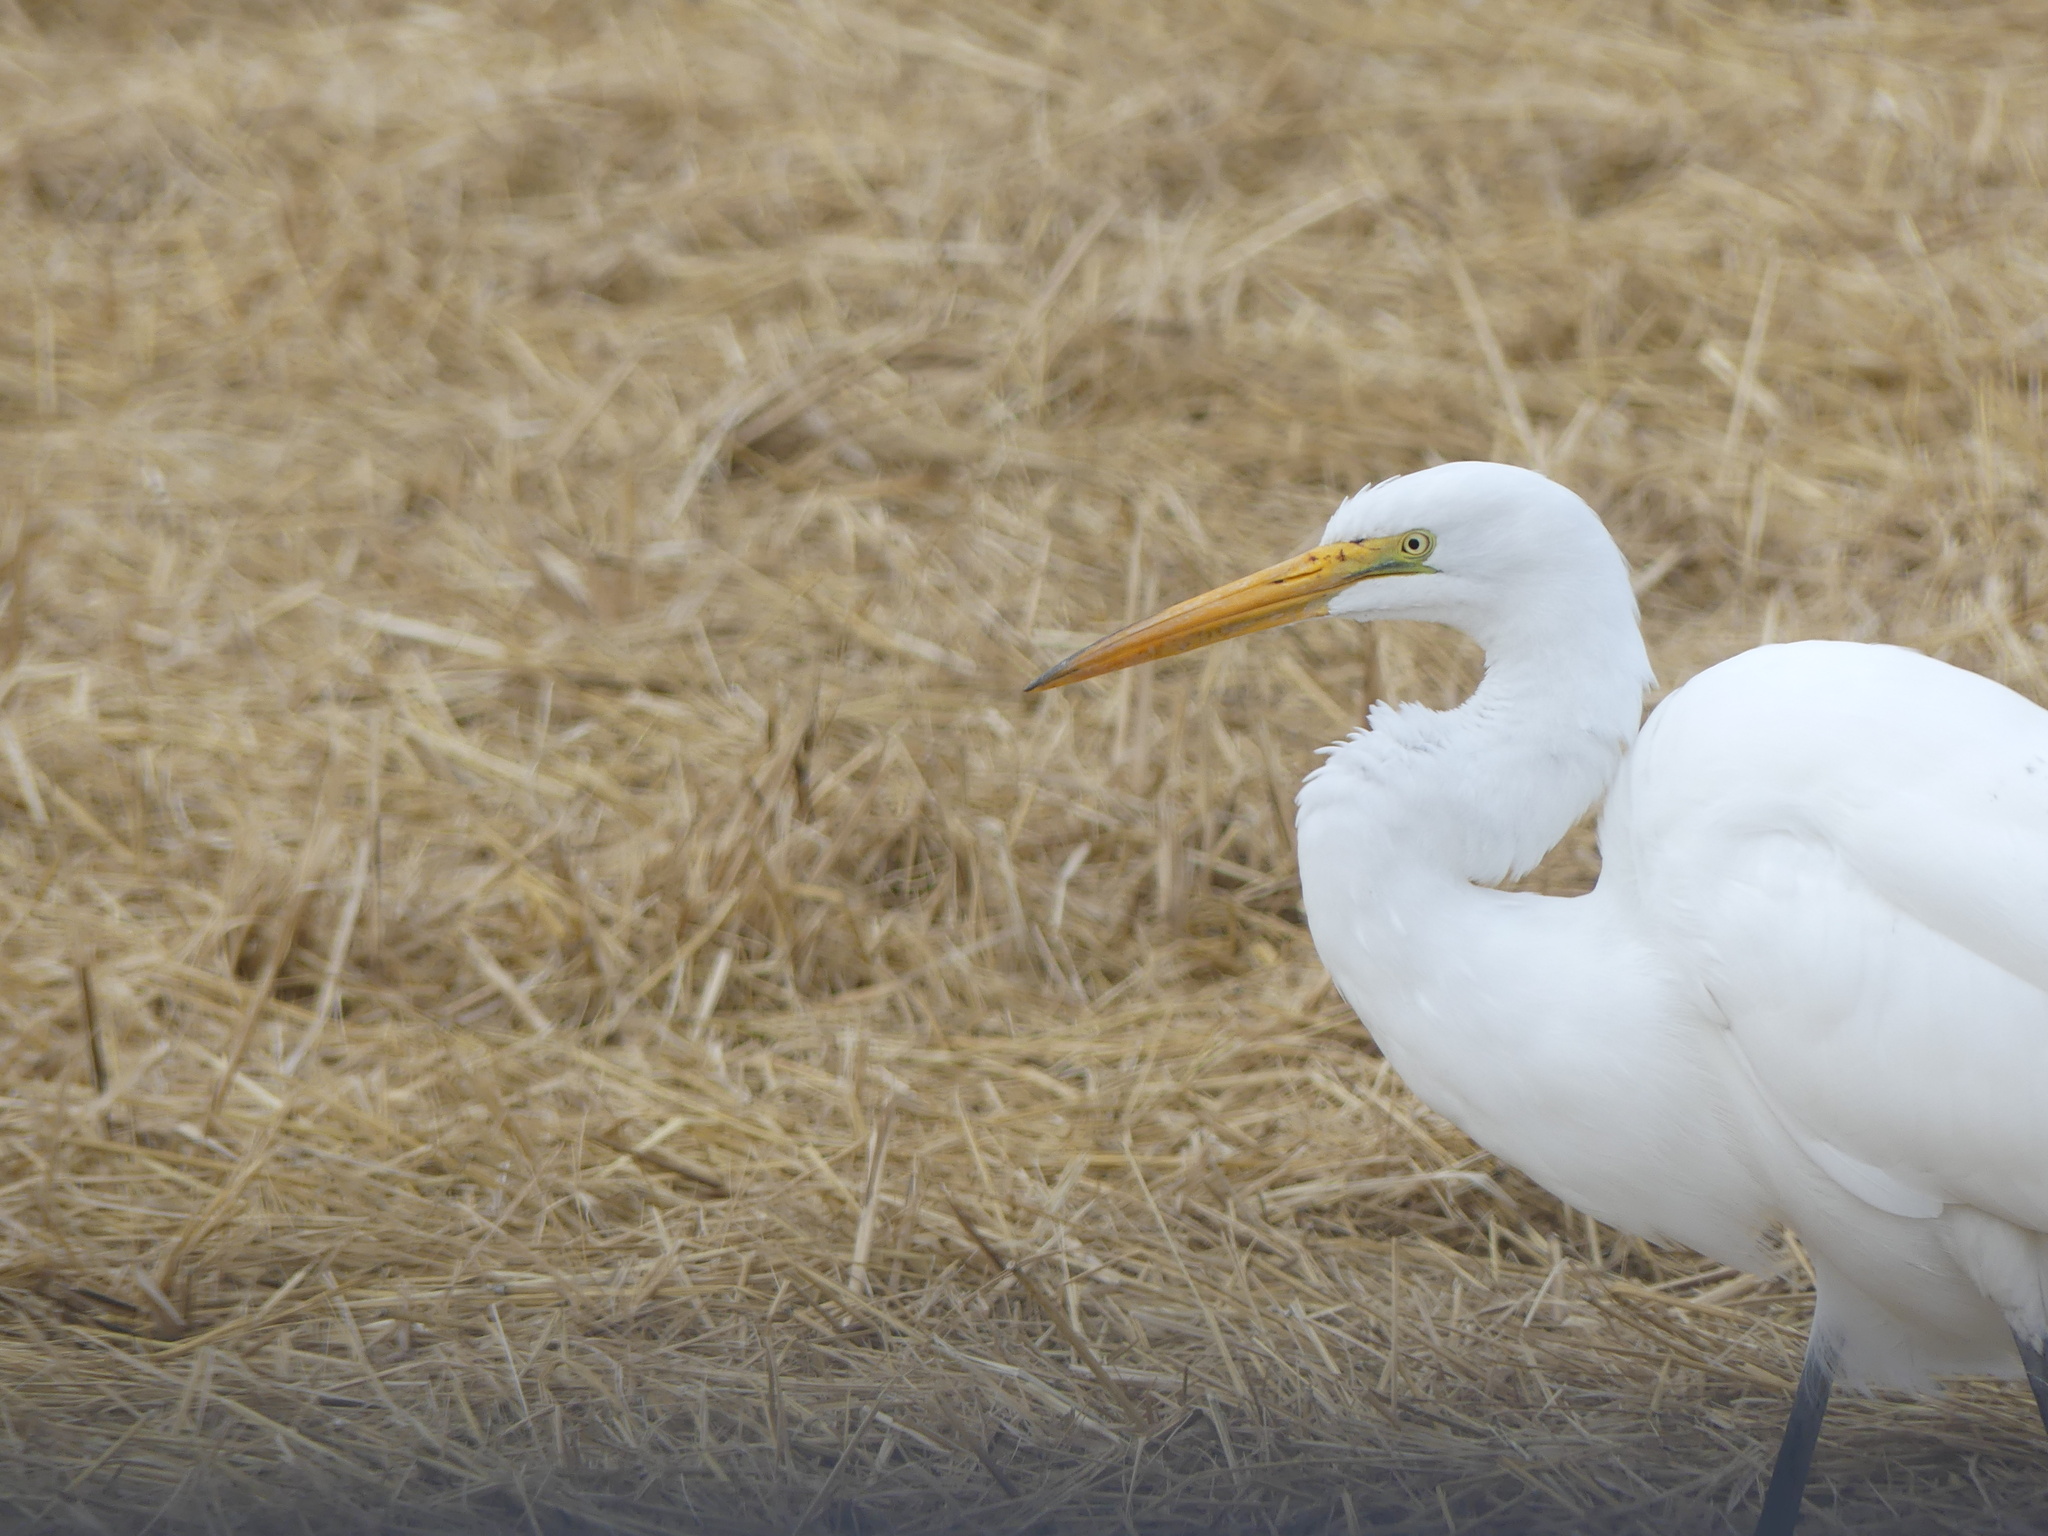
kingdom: Animalia
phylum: Chordata
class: Aves
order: Pelecaniformes
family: Ardeidae
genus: Ardea
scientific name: Ardea alba
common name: Great egret
